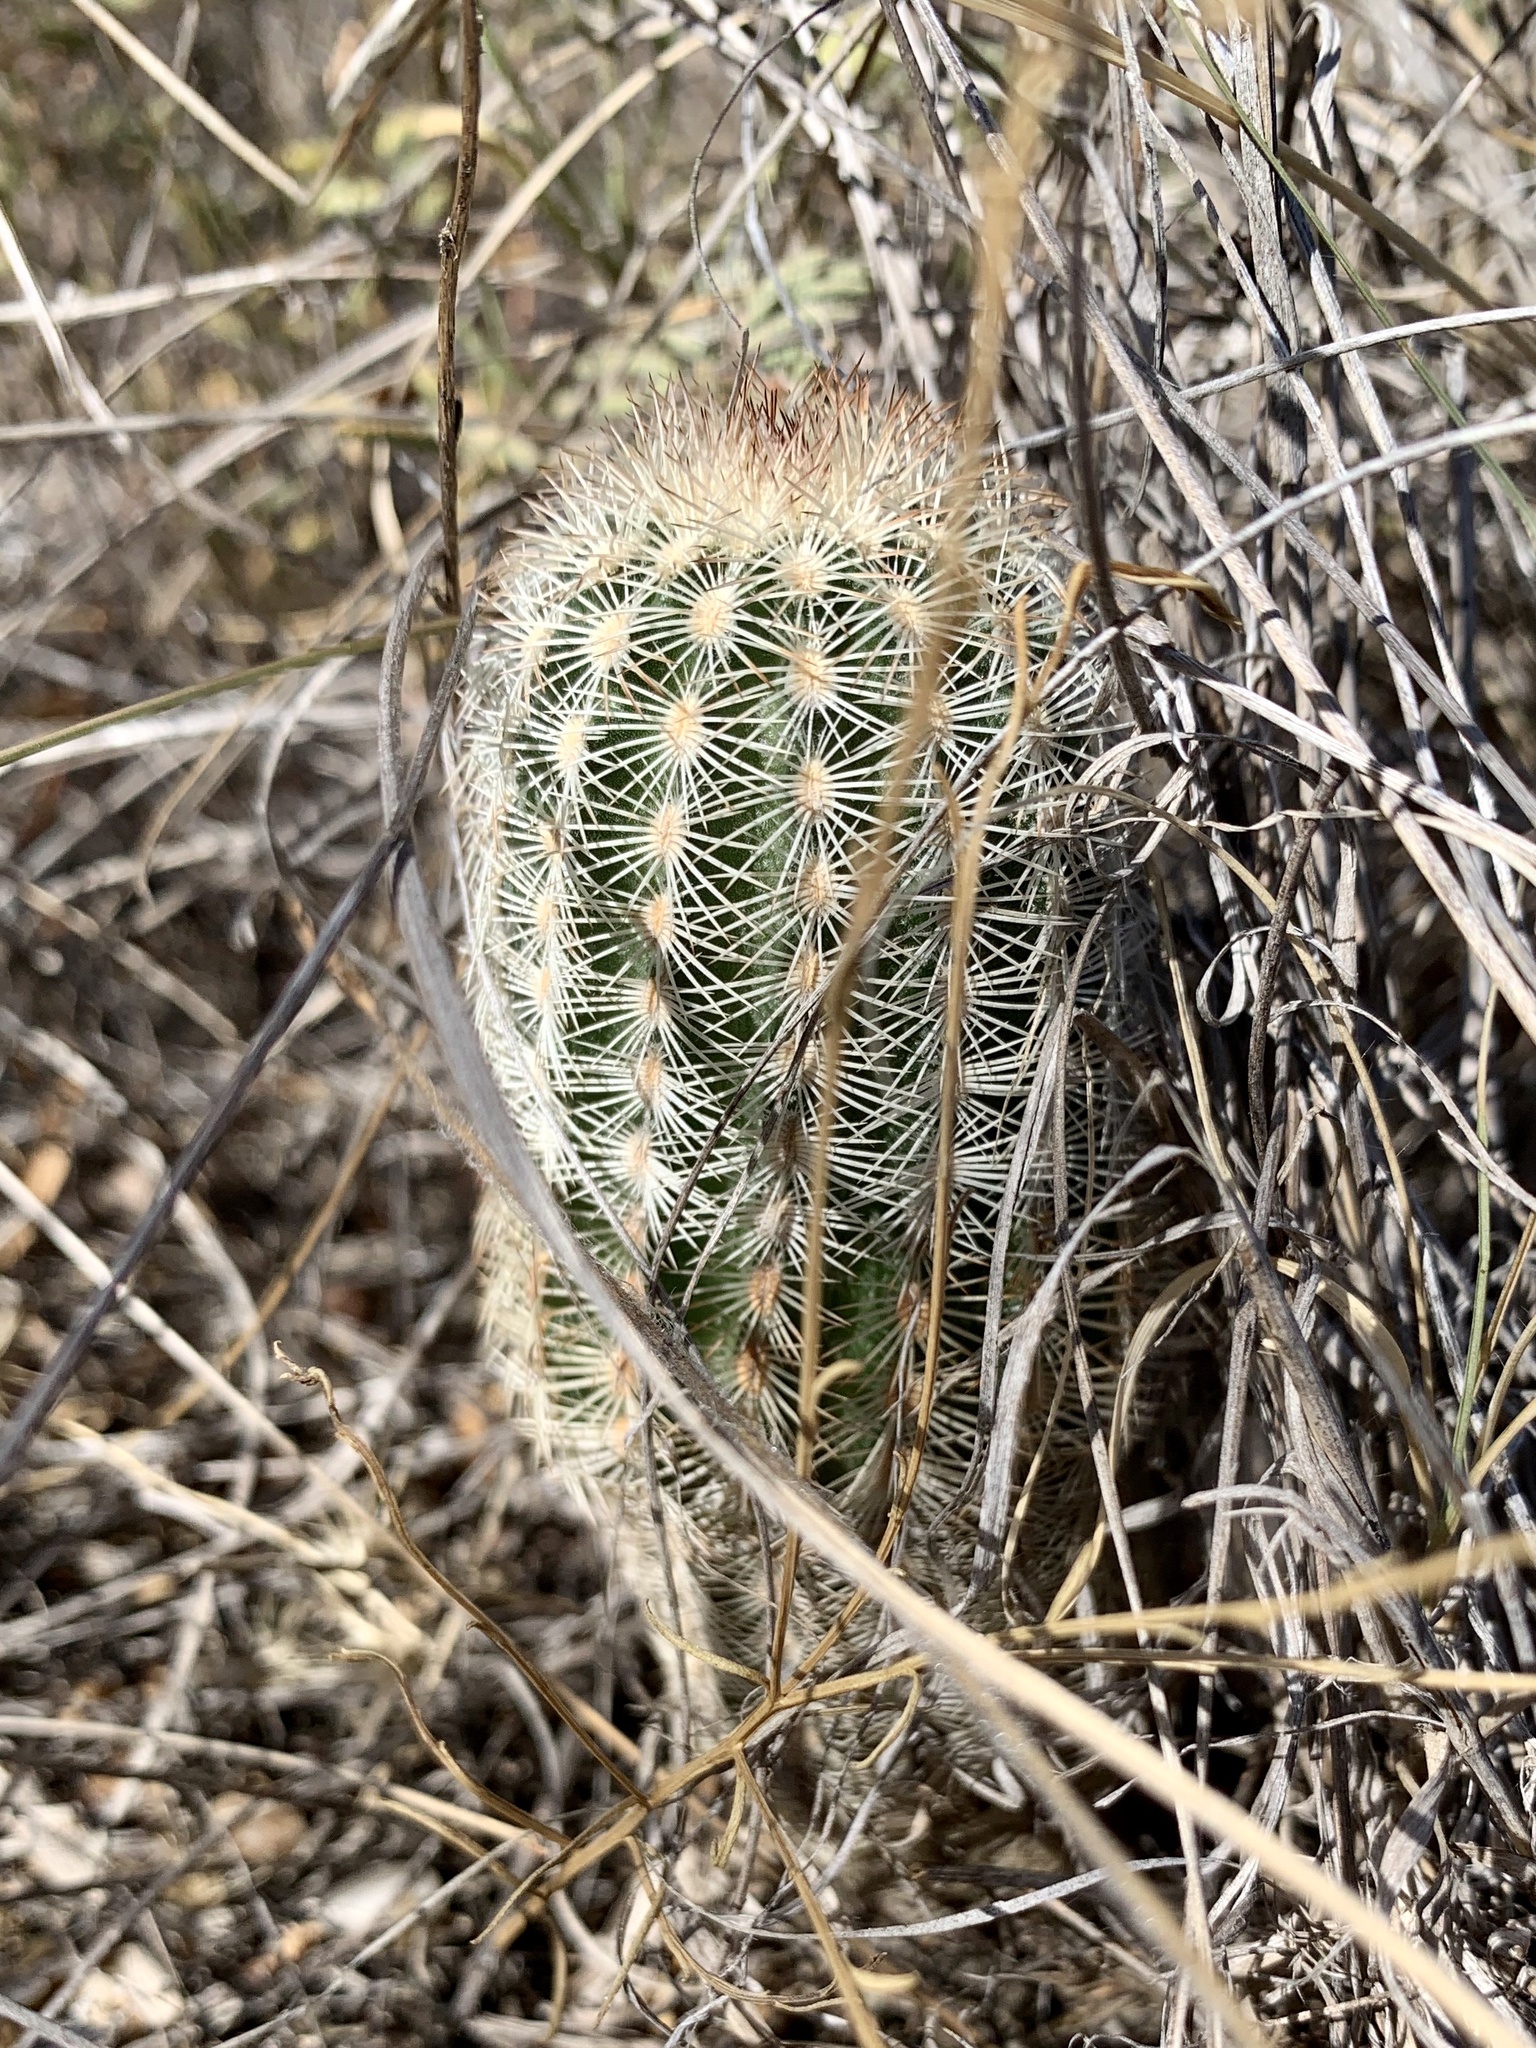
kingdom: Plantae
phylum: Tracheophyta
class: Magnoliopsida
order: Caryophyllales
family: Cactaceae
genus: Echinocereus
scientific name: Echinocereus reichenbachii
